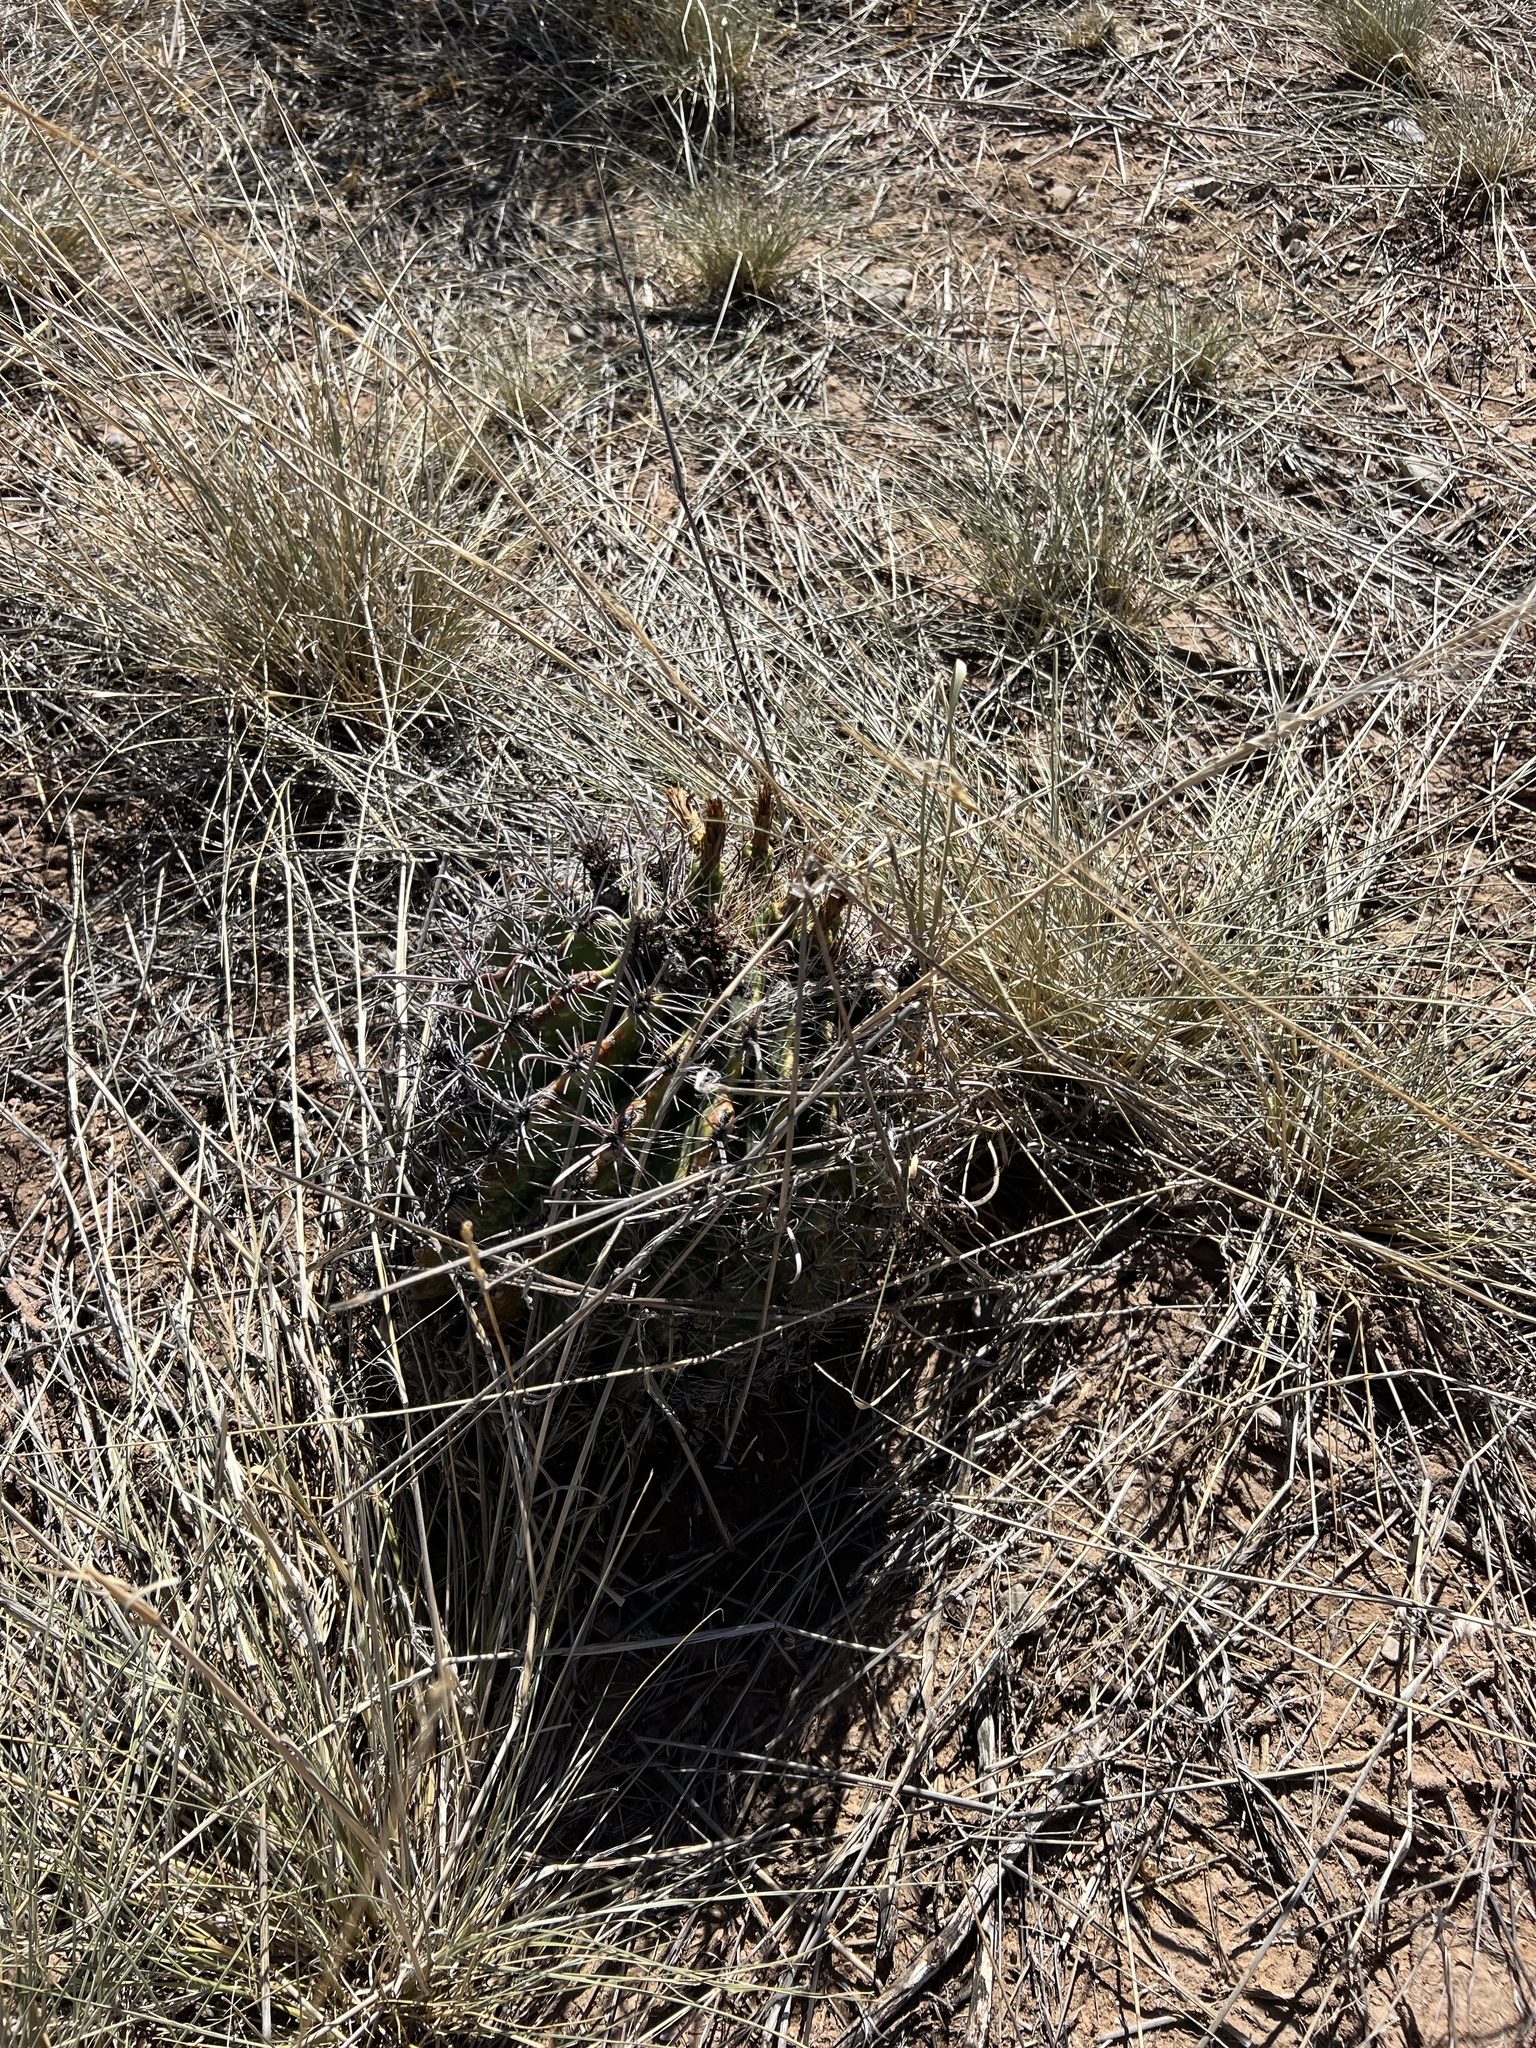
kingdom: Plantae
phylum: Tracheophyta
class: Magnoliopsida
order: Caryophyllales
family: Cactaceae
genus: Ferocactus
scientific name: Ferocactus wislizeni
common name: Candy barrel cactus
